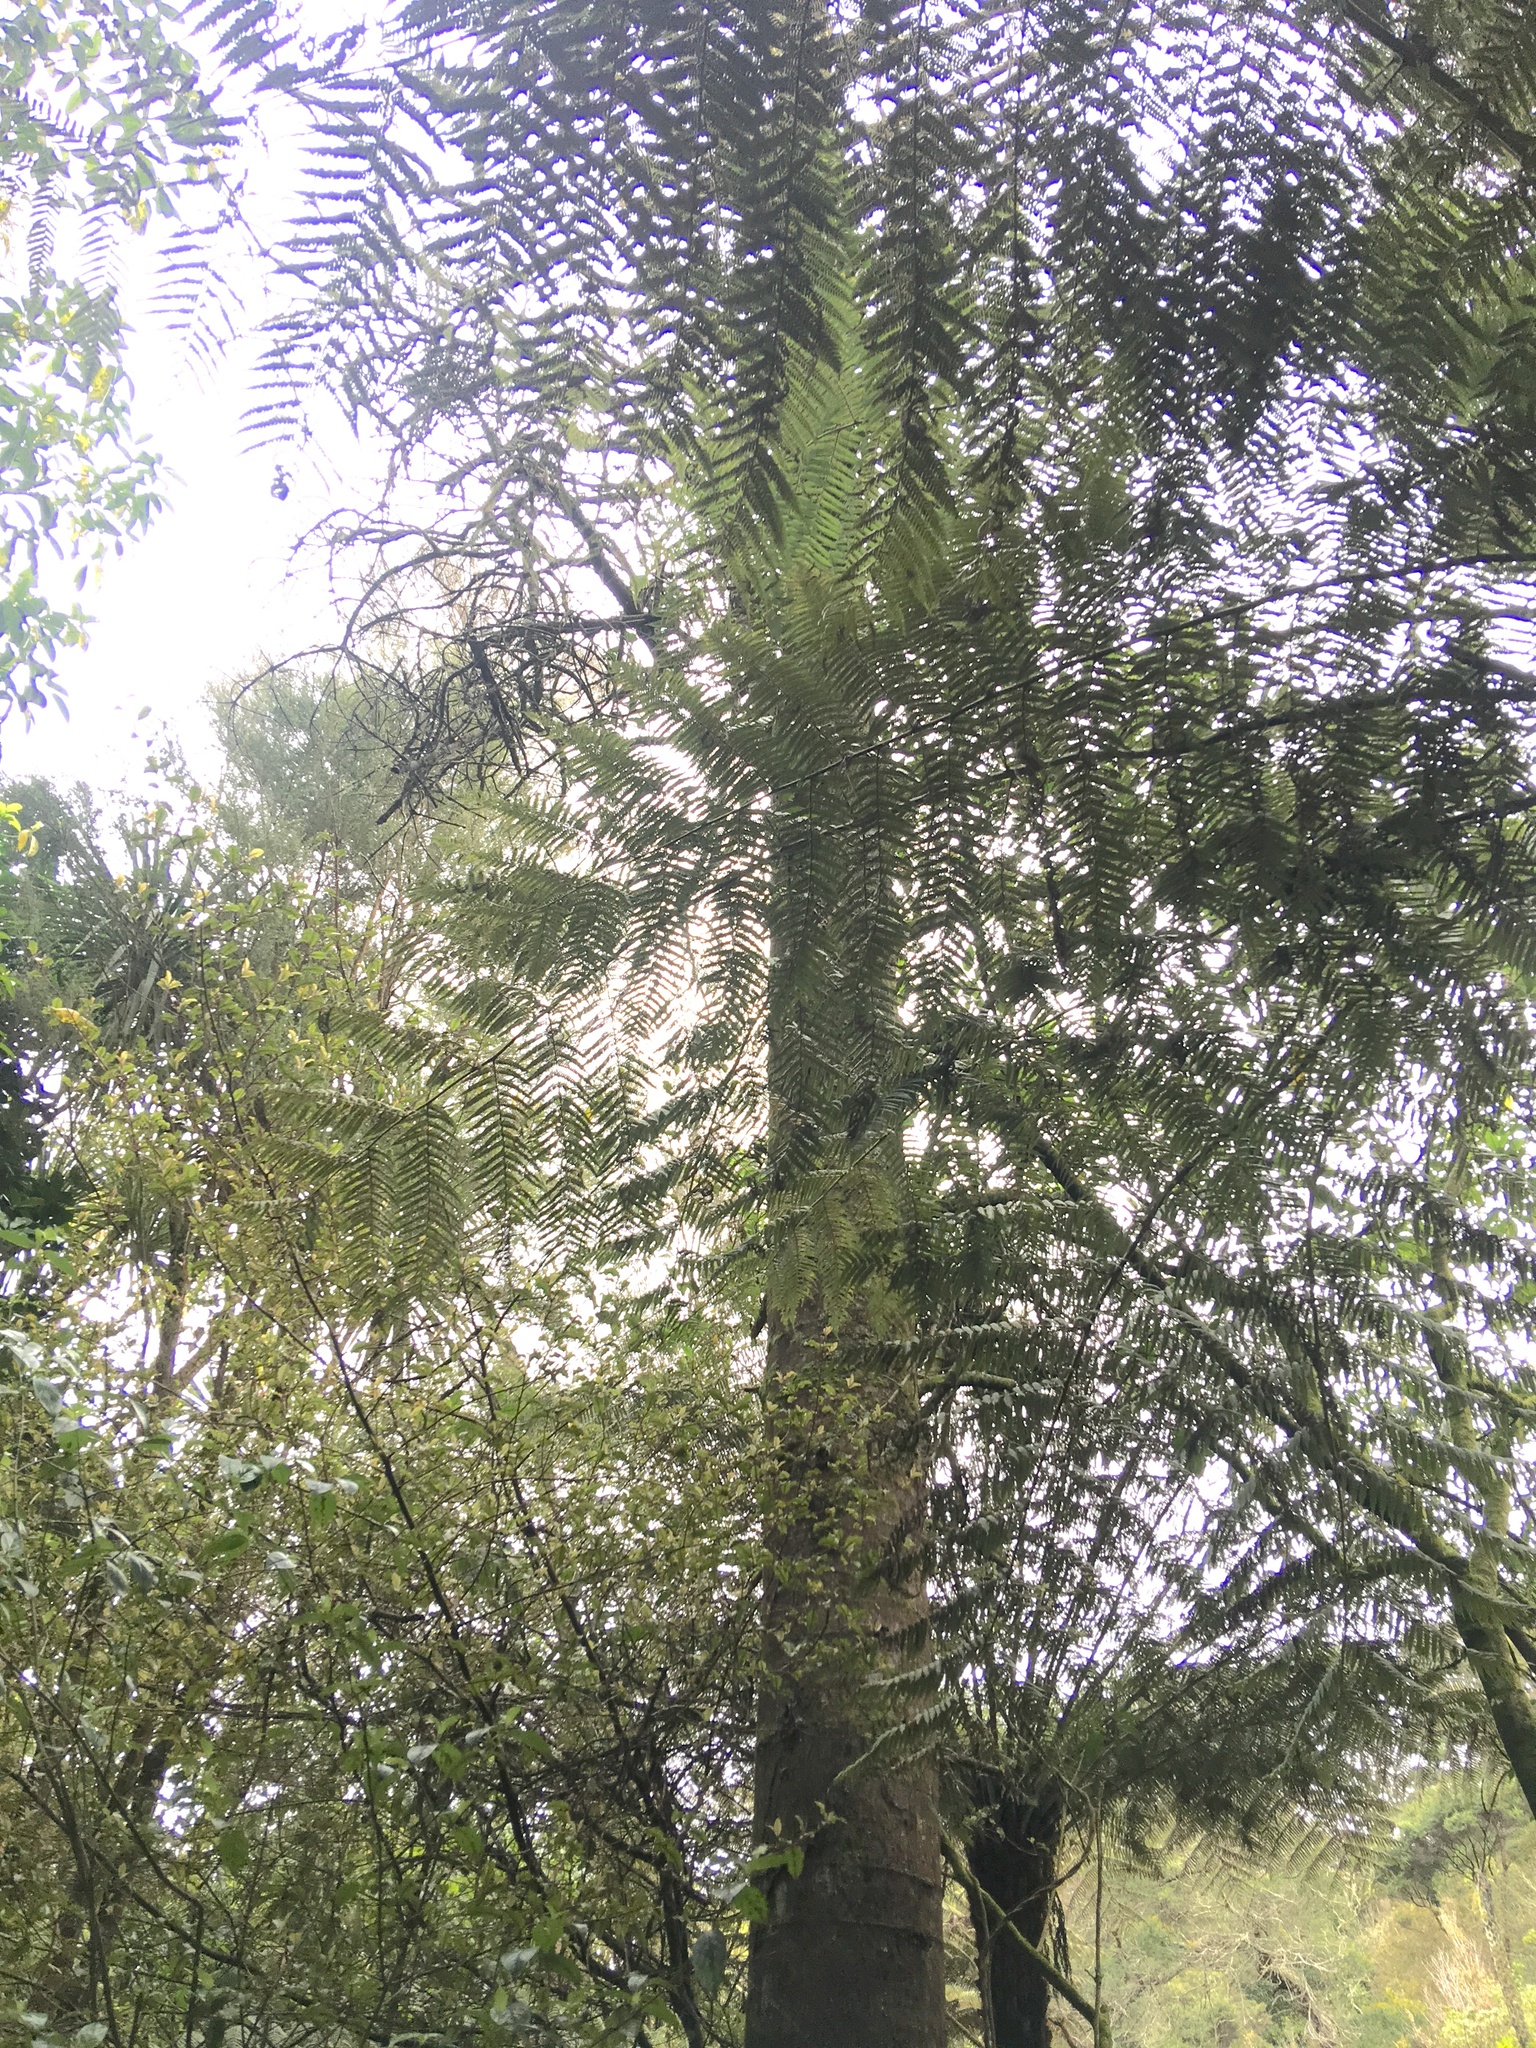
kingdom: Plantae
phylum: Tracheophyta
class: Pinopsida
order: Pinales
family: Phyllocladaceae
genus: Phyllocladus
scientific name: Phyllocladus trichomanoides
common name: Celery pine
